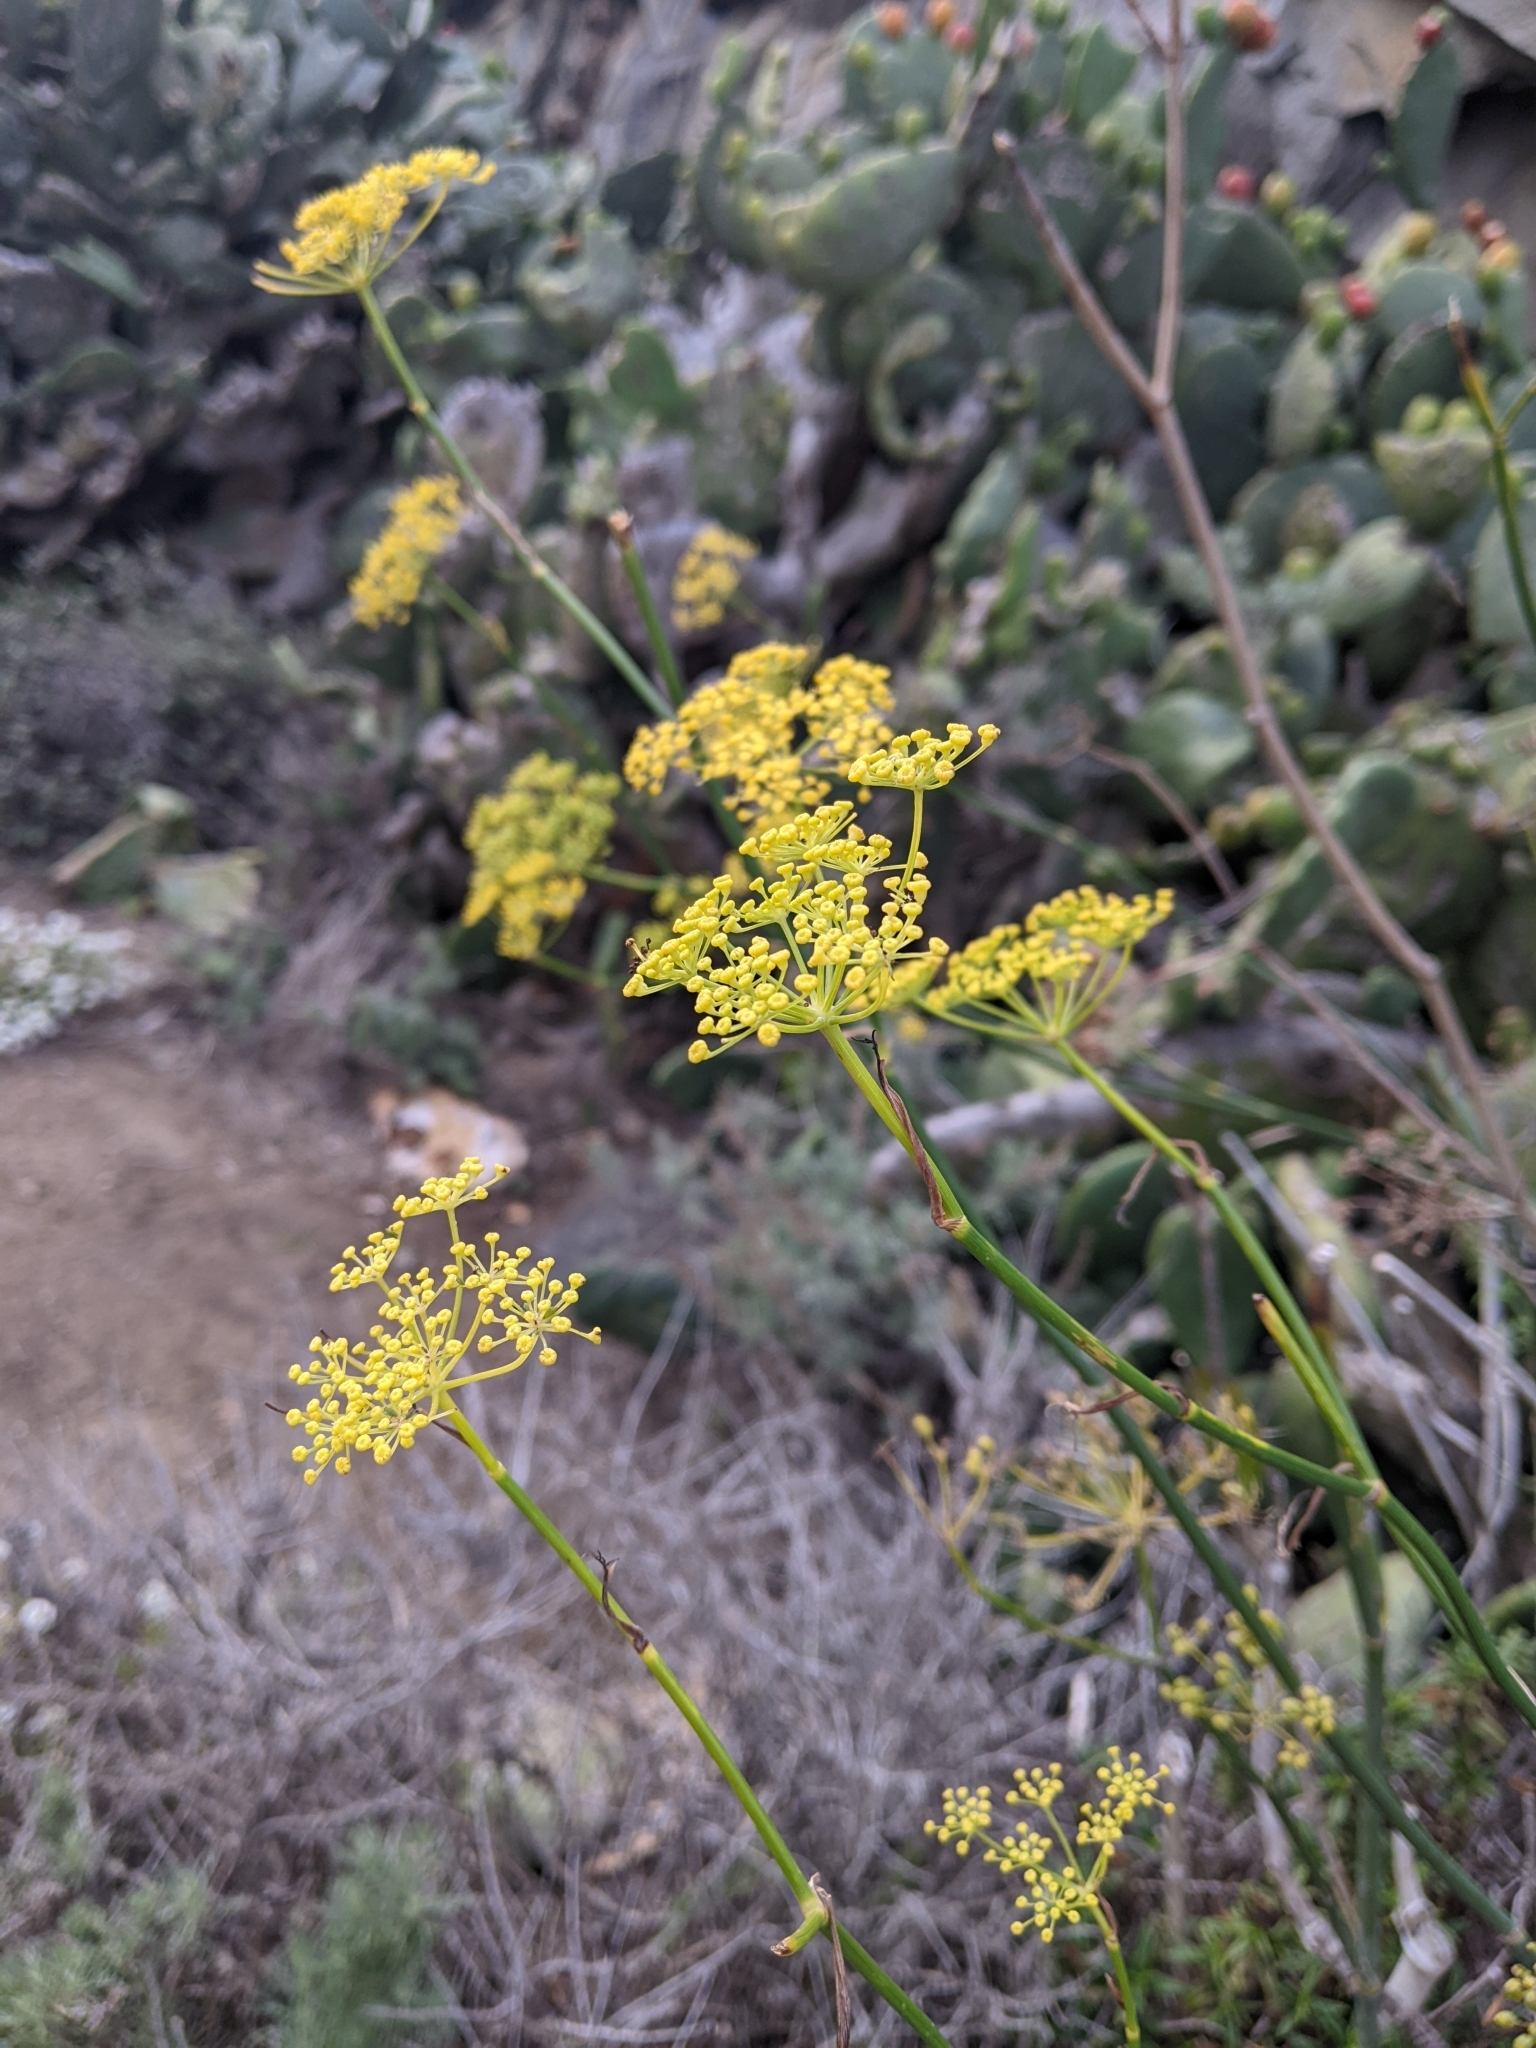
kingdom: Plantae
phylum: Tracheophyta
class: Magnoliopsida
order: Apiales
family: Apiaceae
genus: Foeniculum
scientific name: Foeniculum vulgare
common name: Fennel
